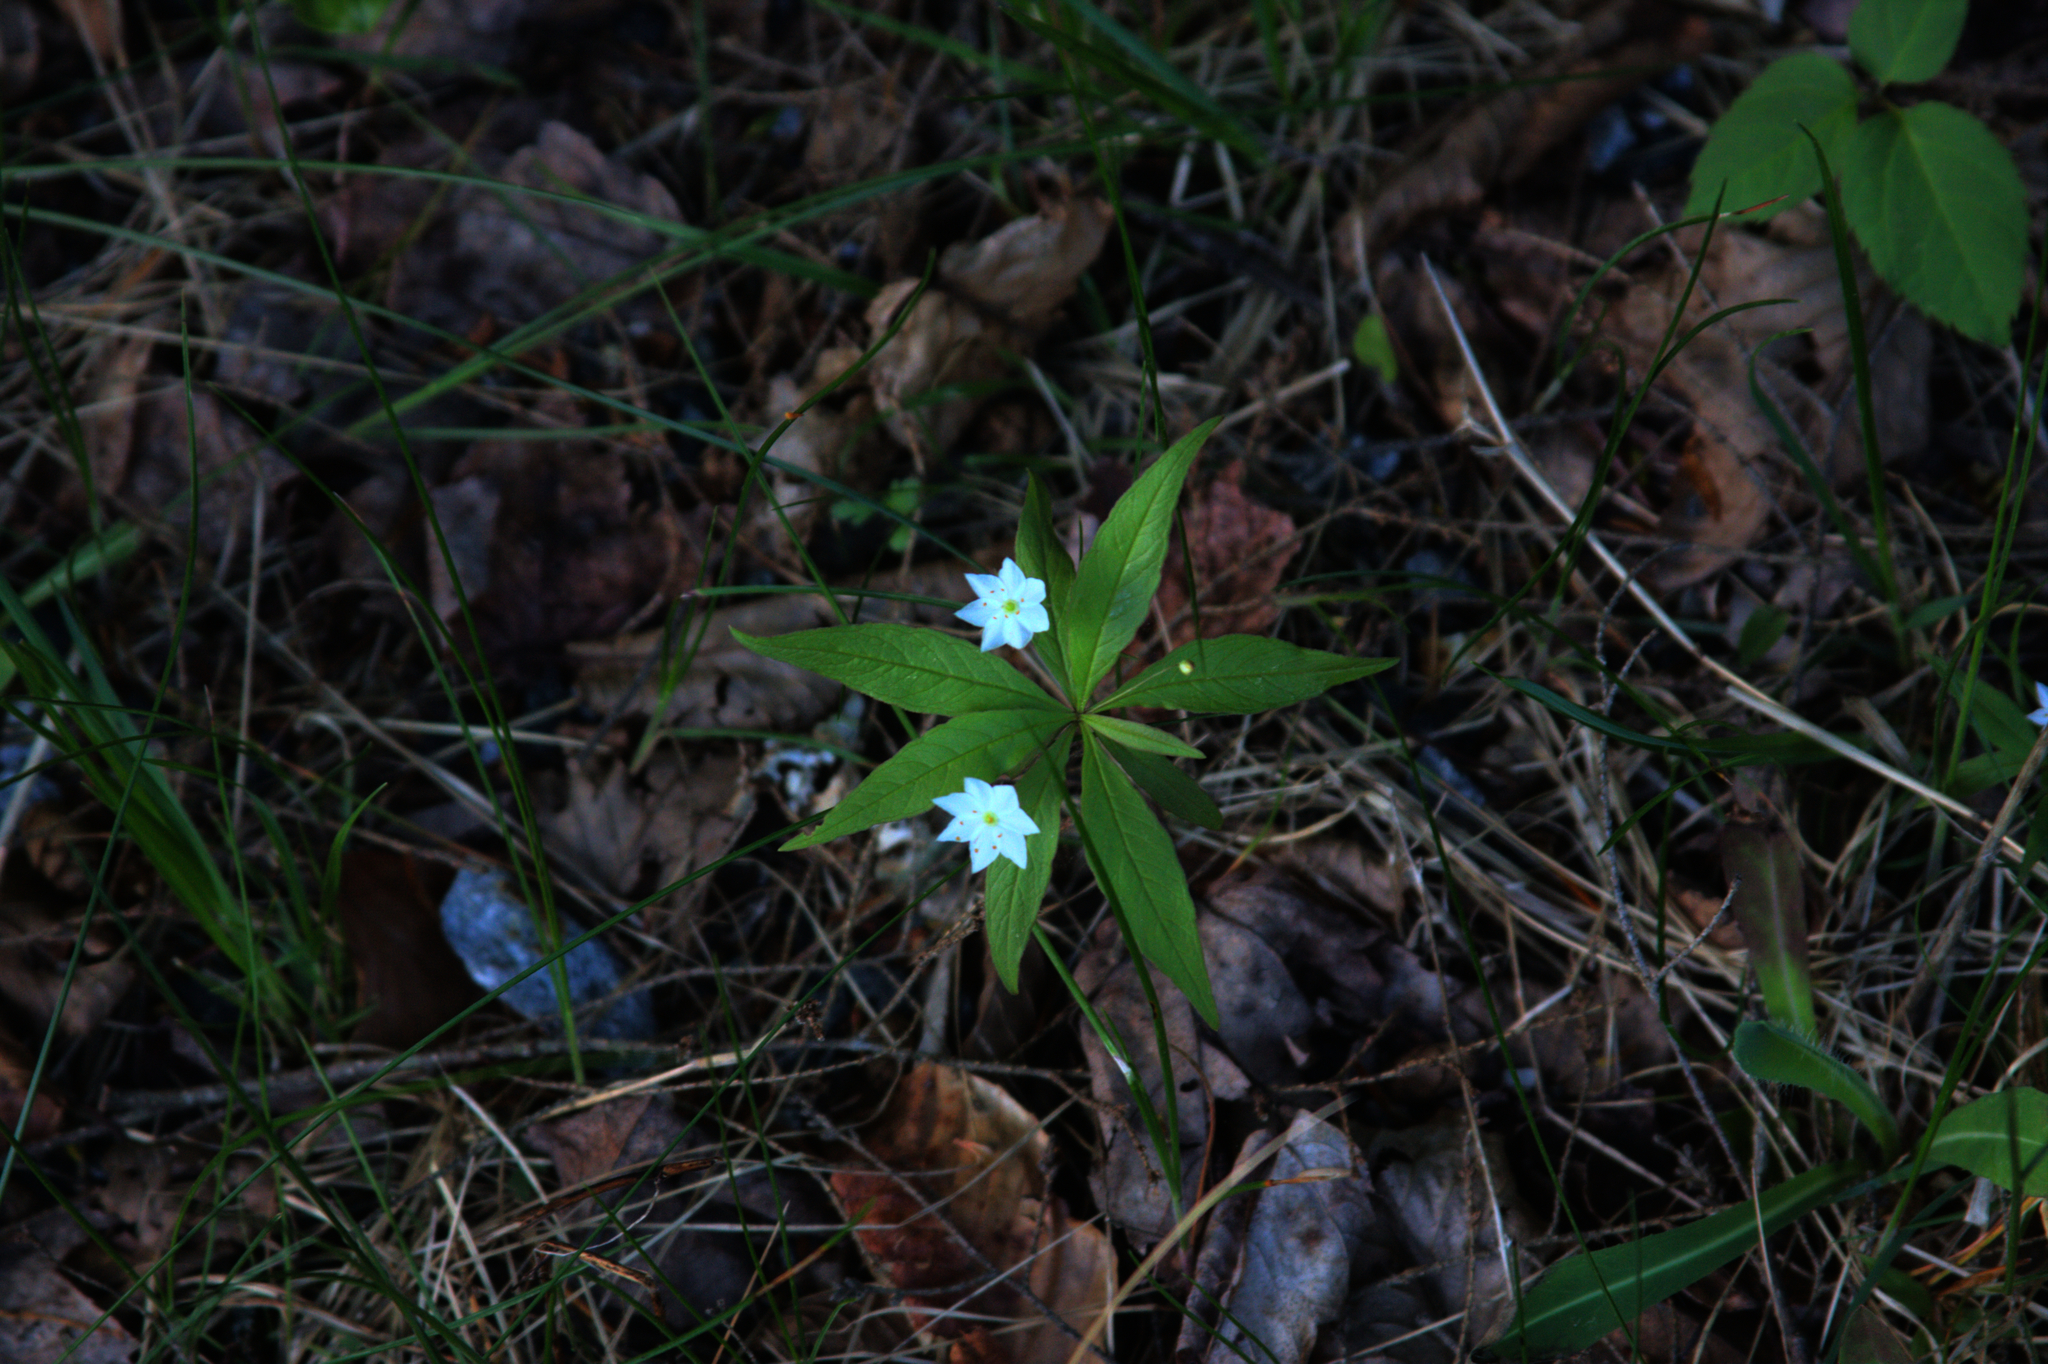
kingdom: Plantae
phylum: Tracheophyta
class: Magnoliopsida
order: Ericales
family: Primulaceae
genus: Lysimachia
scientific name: Lysimachia borealis
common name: American starflower
